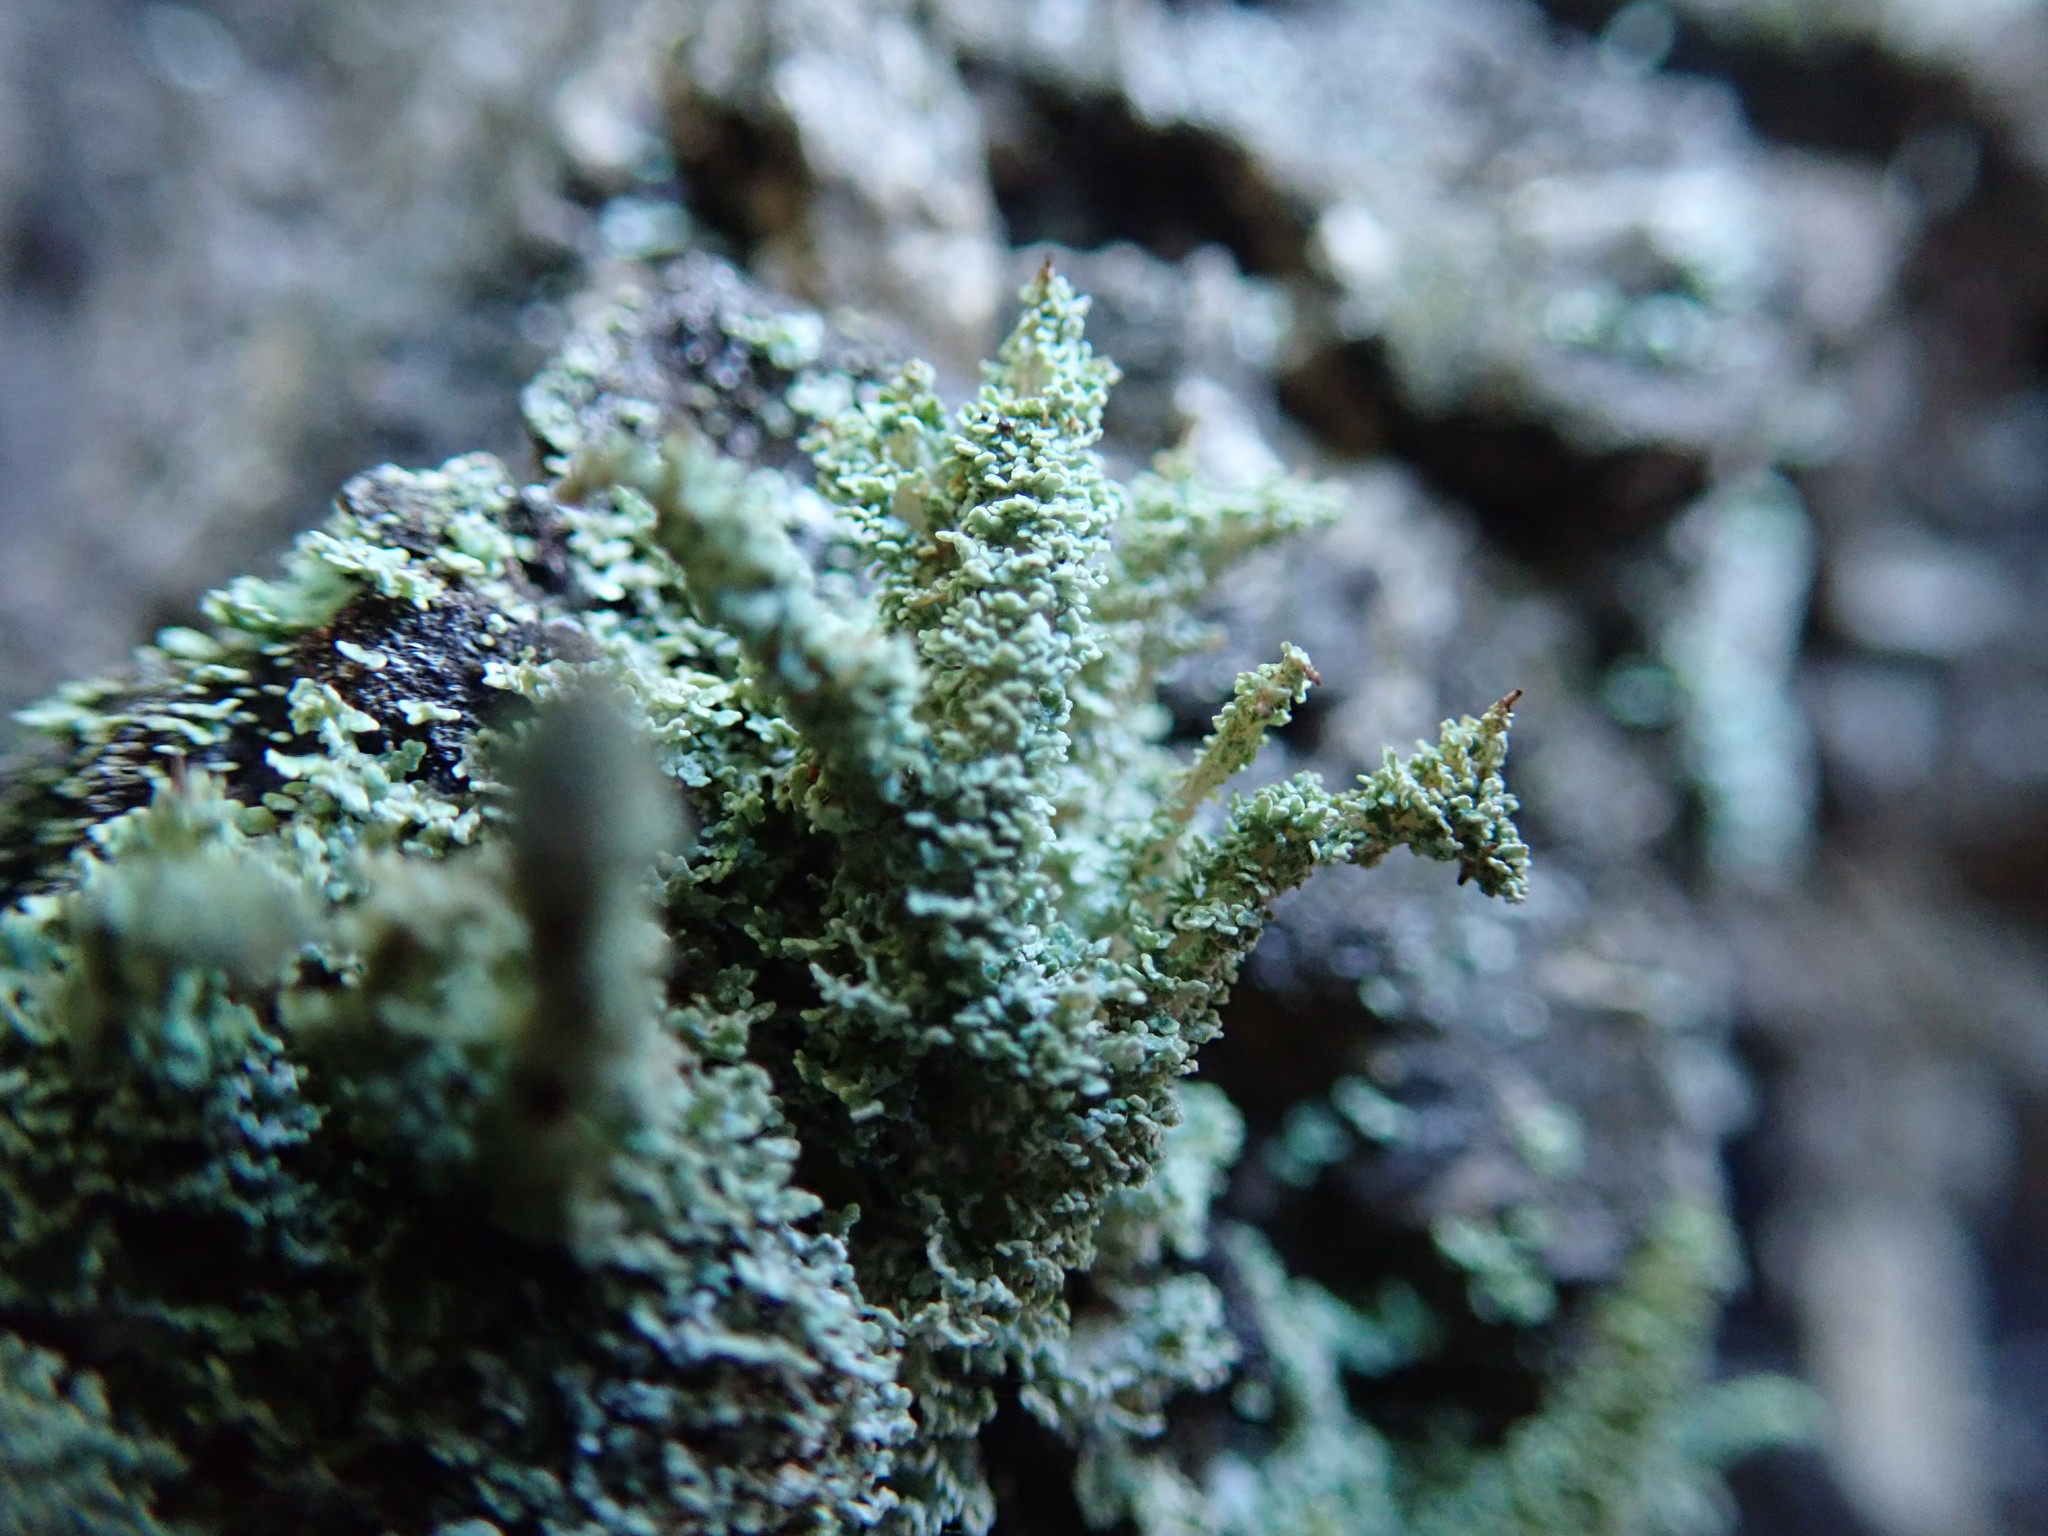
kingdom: Fungi
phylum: Ascomycota
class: Lecanoromycetes
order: Lecanorales
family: Cladoniaceae
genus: Cladonia
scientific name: Cladonia squamosa
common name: Dragon horn
